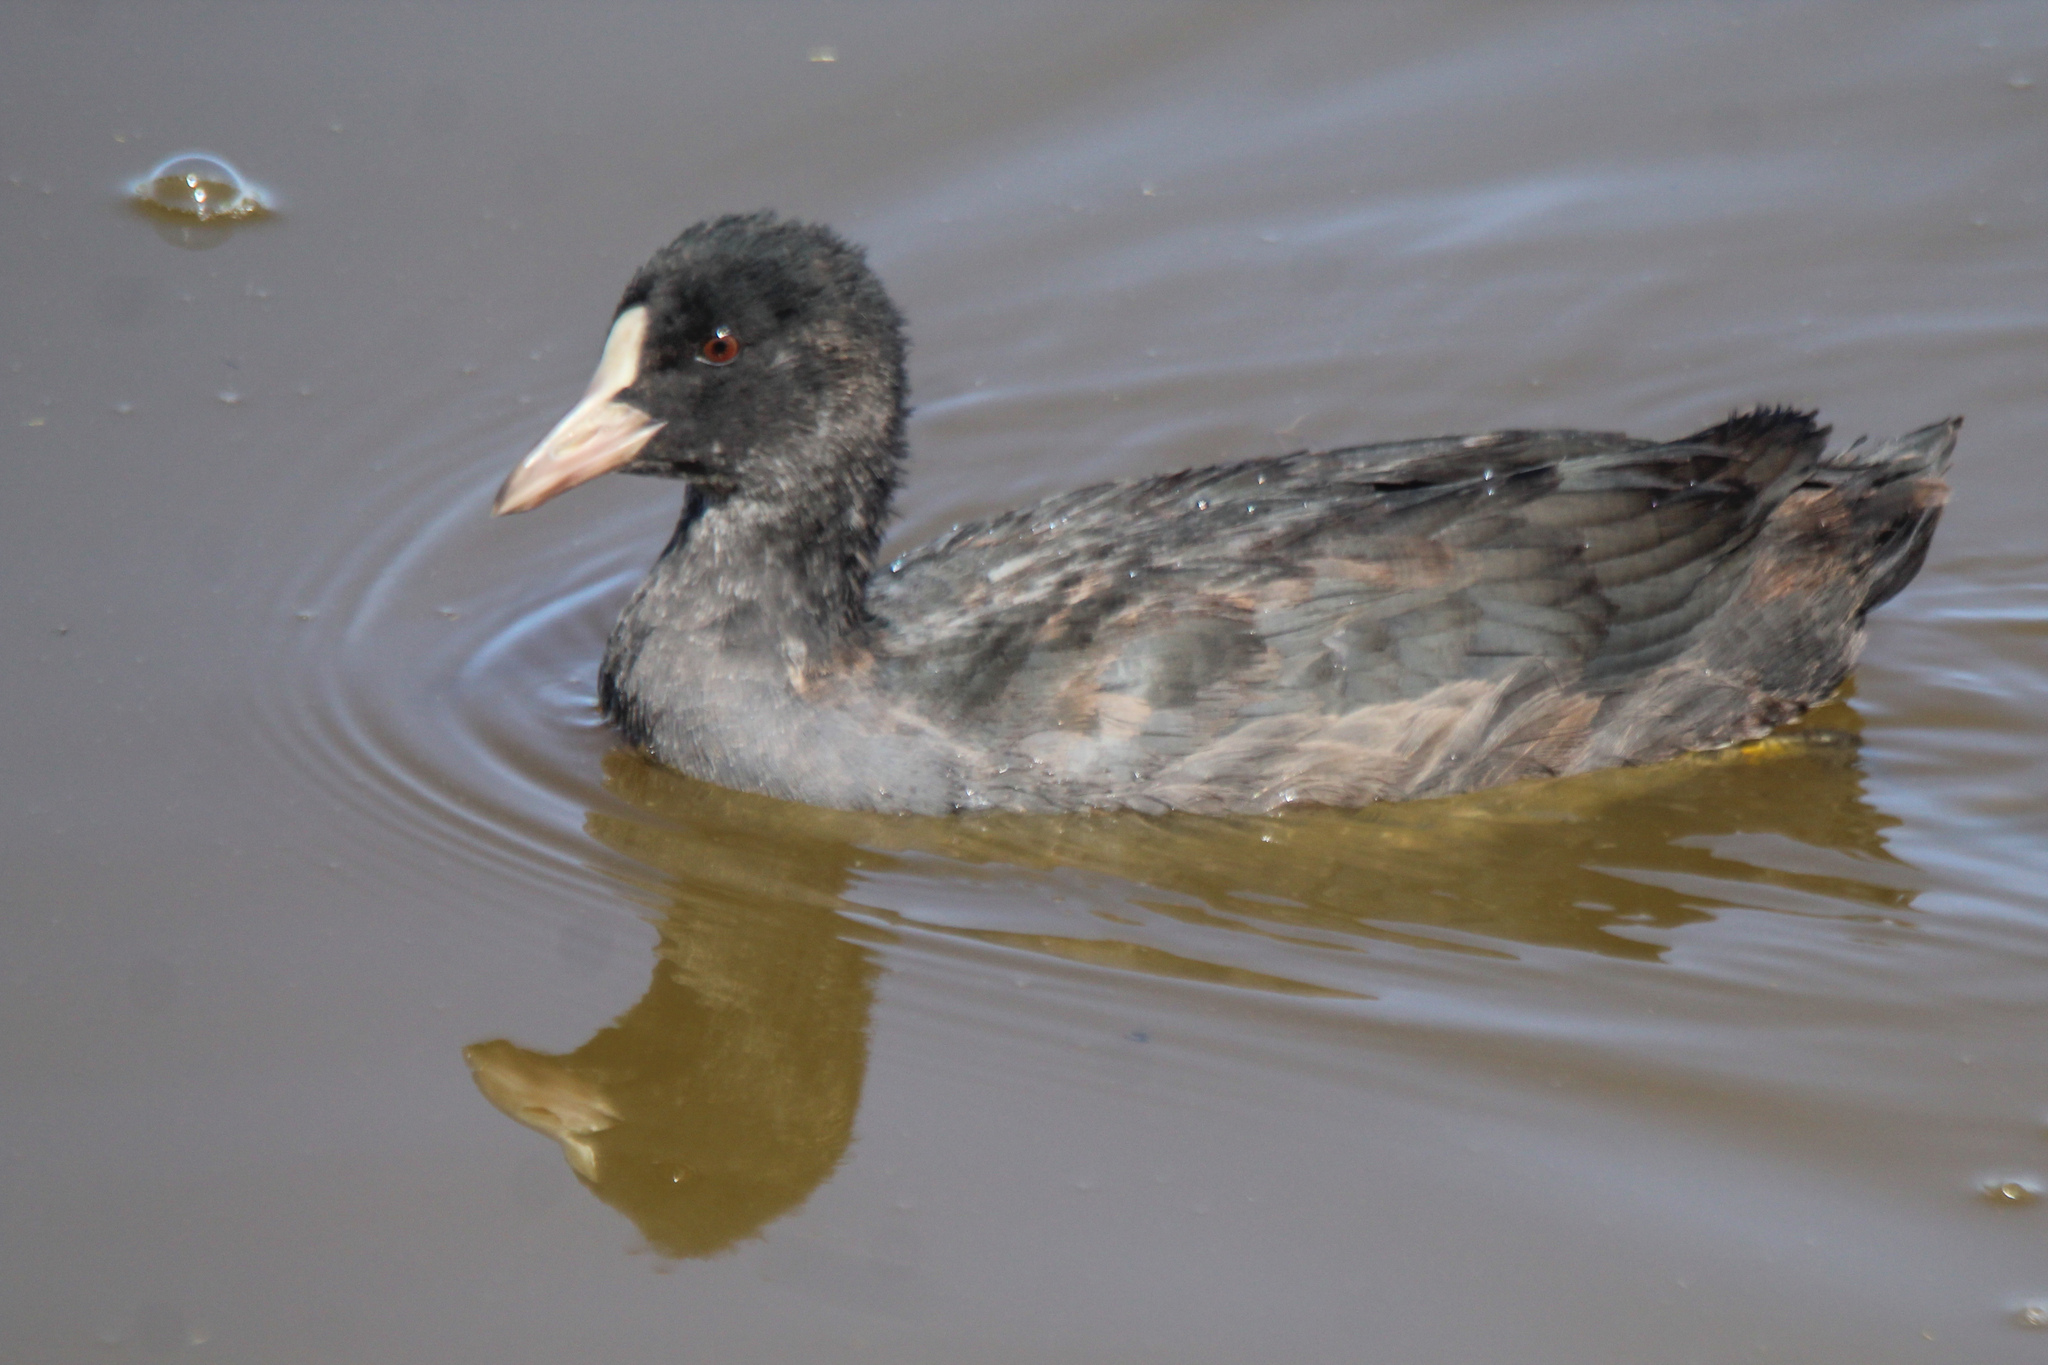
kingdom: Animalia
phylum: Chordata
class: Aves
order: Gruiformes
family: Rallidae
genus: Fulica
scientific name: Fulica atra
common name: Eurasian coot
